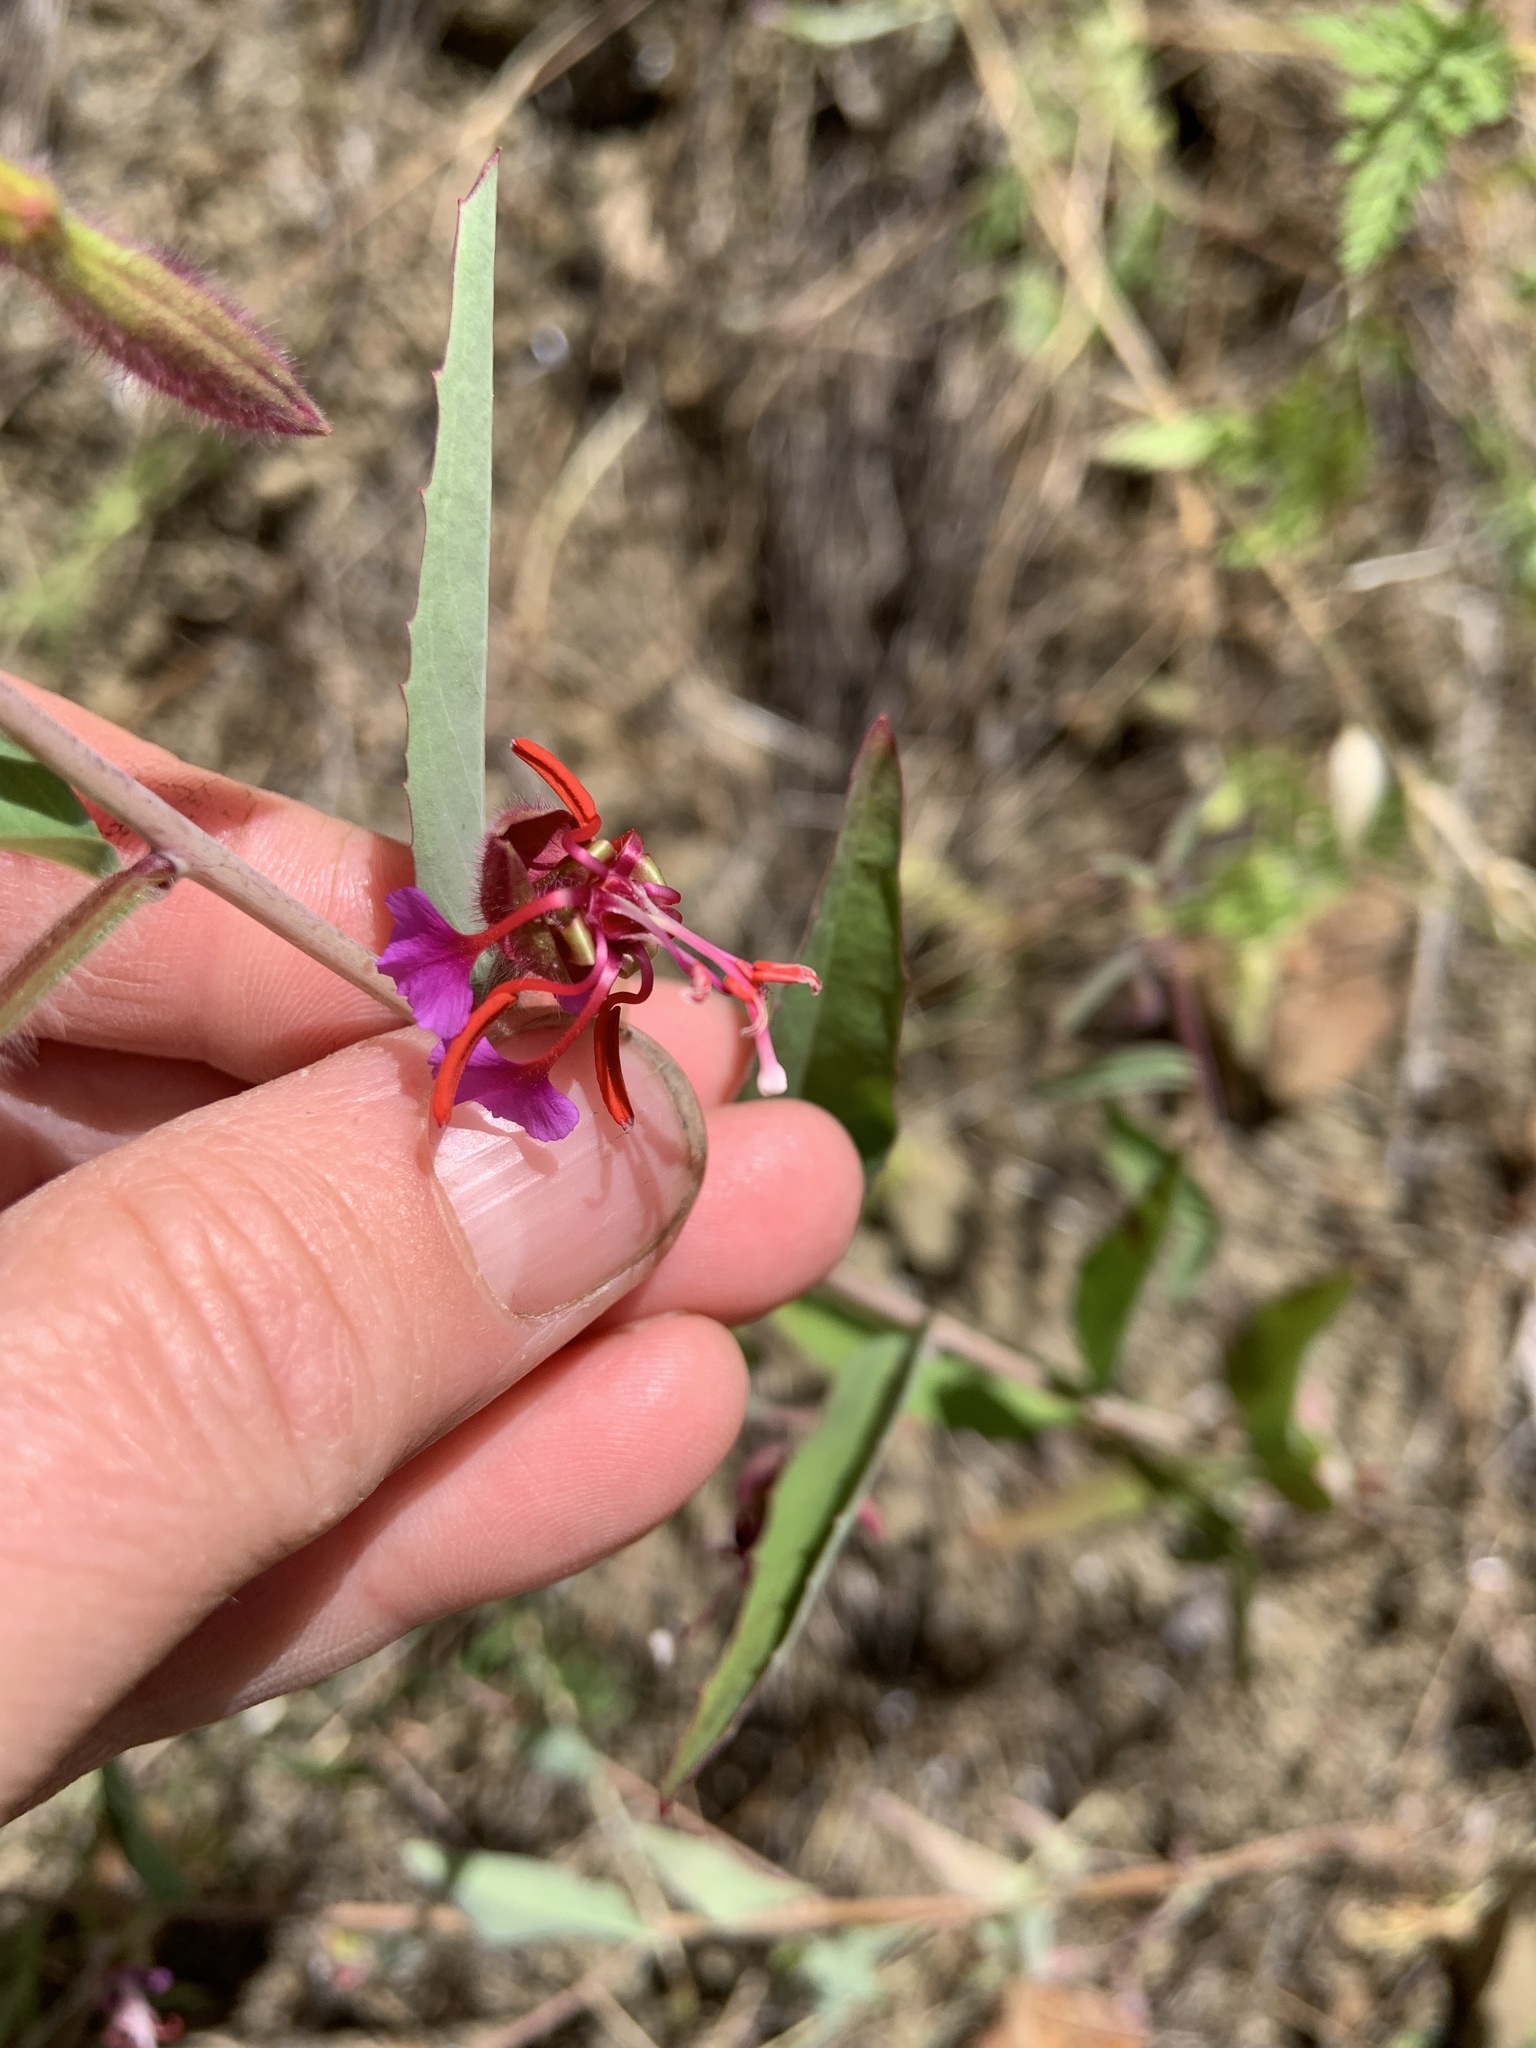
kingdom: Plantae
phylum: Tracheophyta
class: Magnoliopsida
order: Myrtales
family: Onagraceae
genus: Clarkia
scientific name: Clarkia unguiculata
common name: Clarkia
